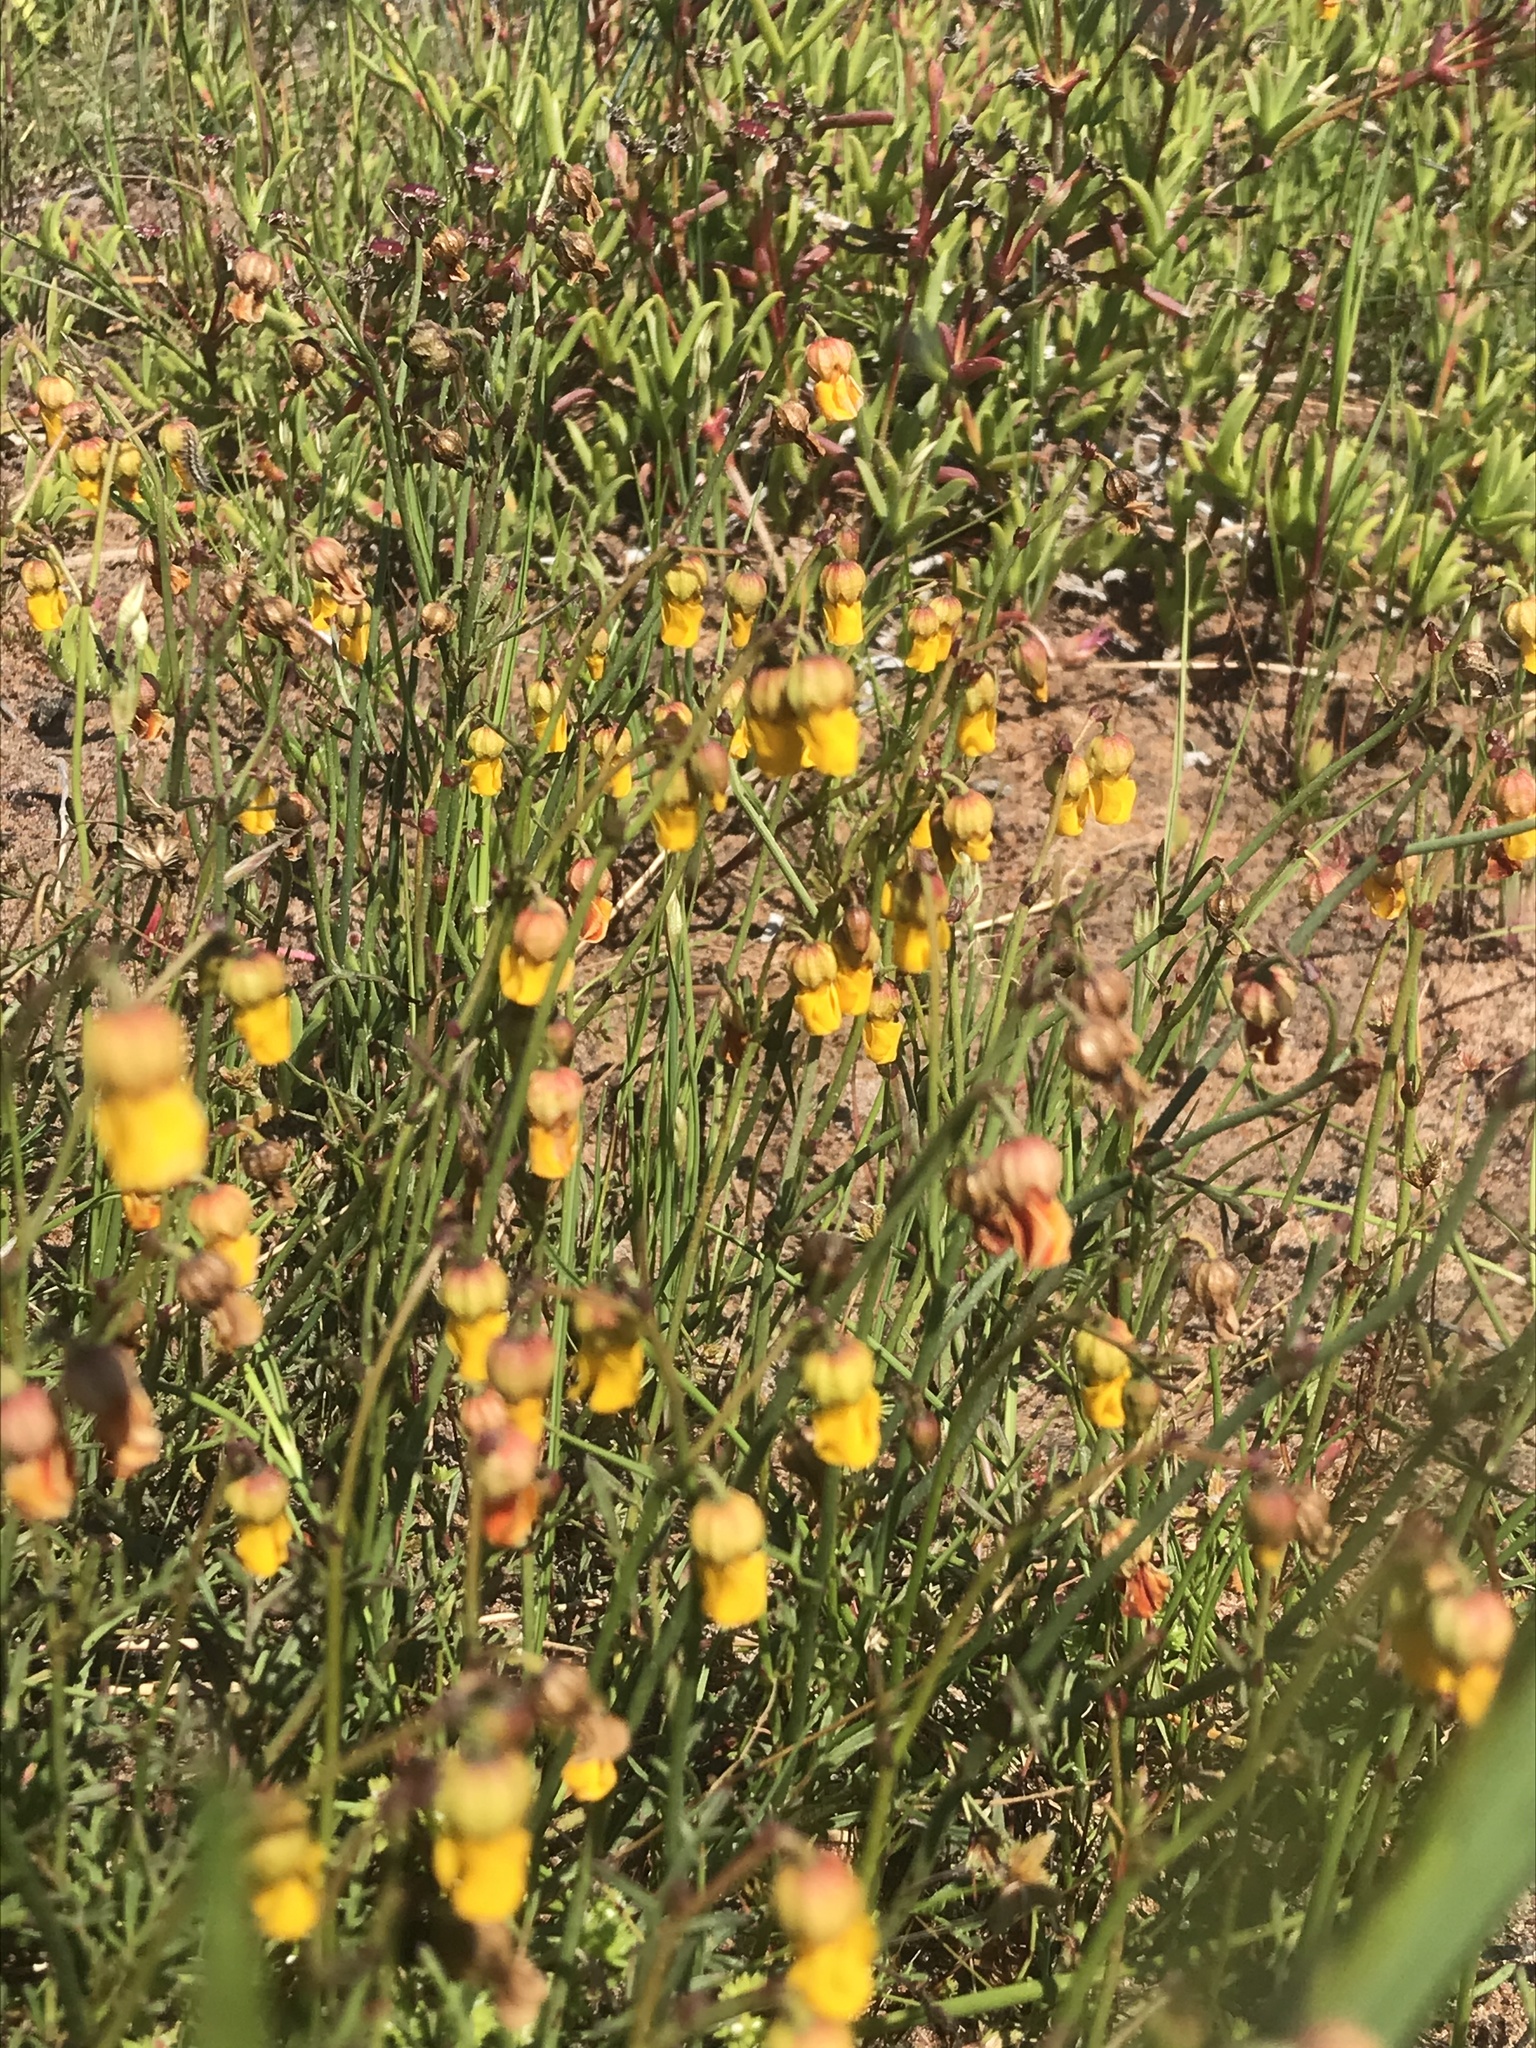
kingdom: Plantae
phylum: Tracheophyta
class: Magnoliopsida
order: Malvales
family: Malvaceae
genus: Hermannia
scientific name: Hermannia procumbens
